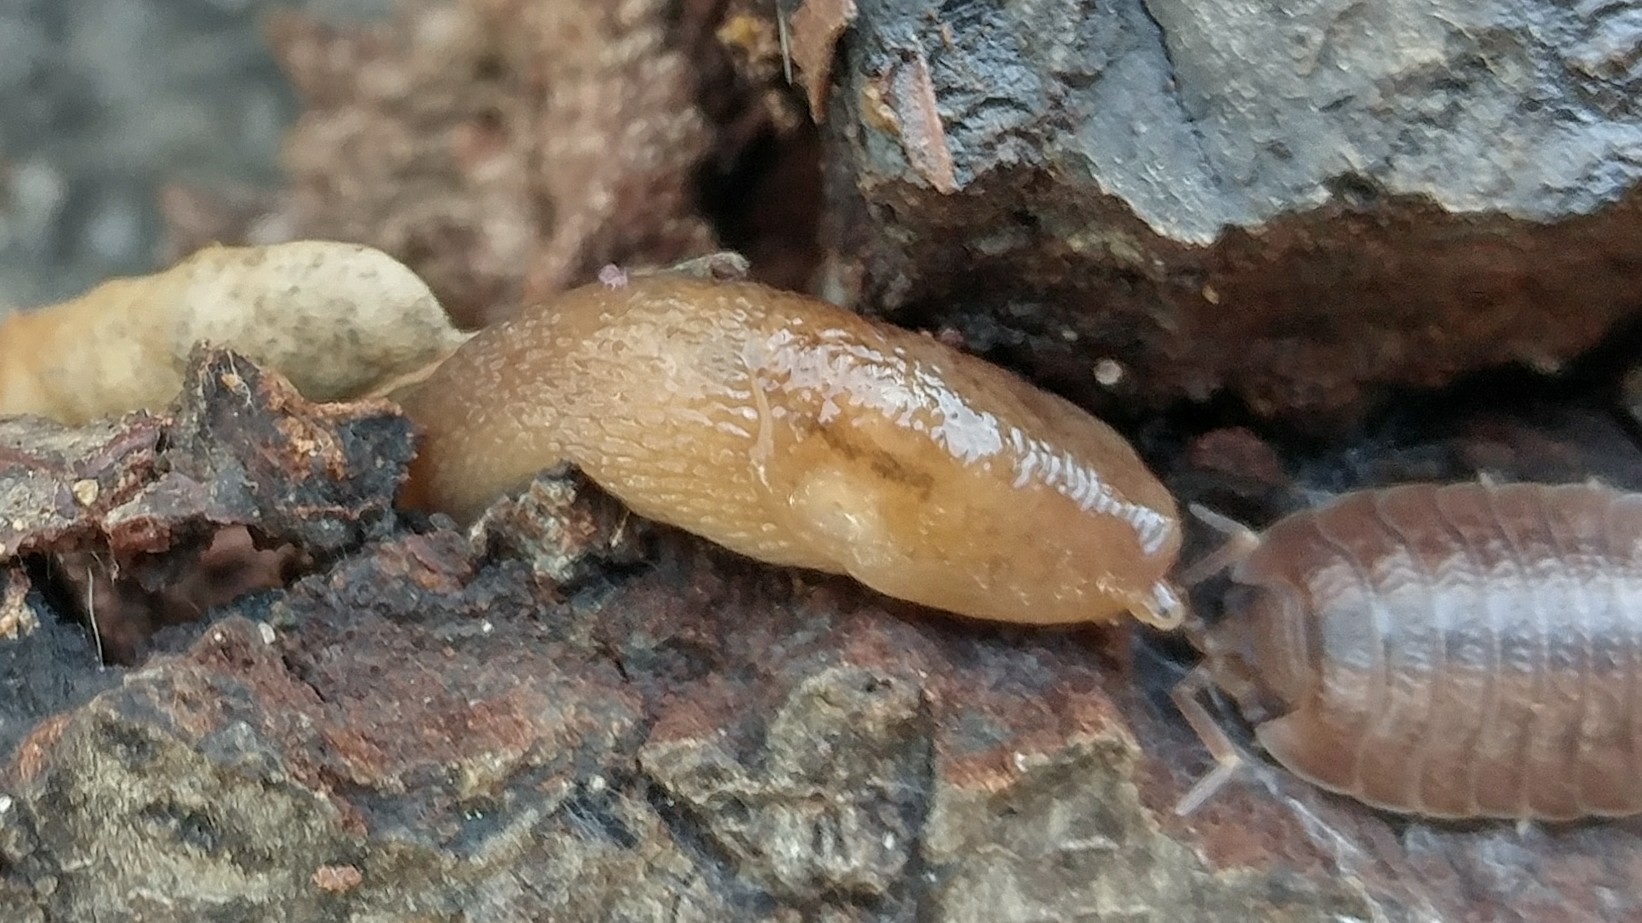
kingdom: Animalia
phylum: Mollusca
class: Gastropoda
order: Stylommatophora
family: Limacidae
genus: Ambigolimax
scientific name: Ambigolimax
